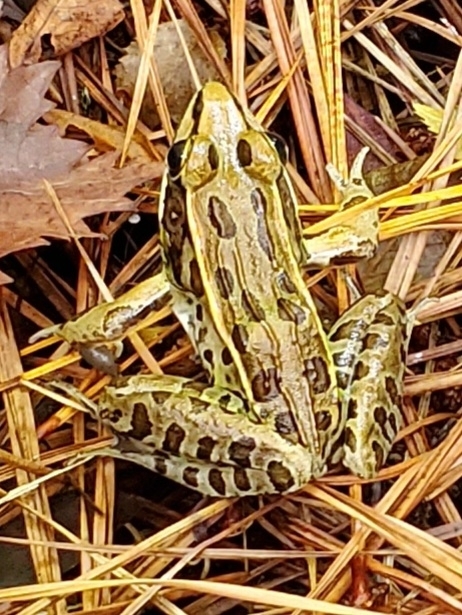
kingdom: Animalia
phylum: Chordata
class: Amphibia
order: Anura
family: Ranidae
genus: Lithobates
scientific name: Lithobates sphenocephalus
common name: Southern leopard frog
